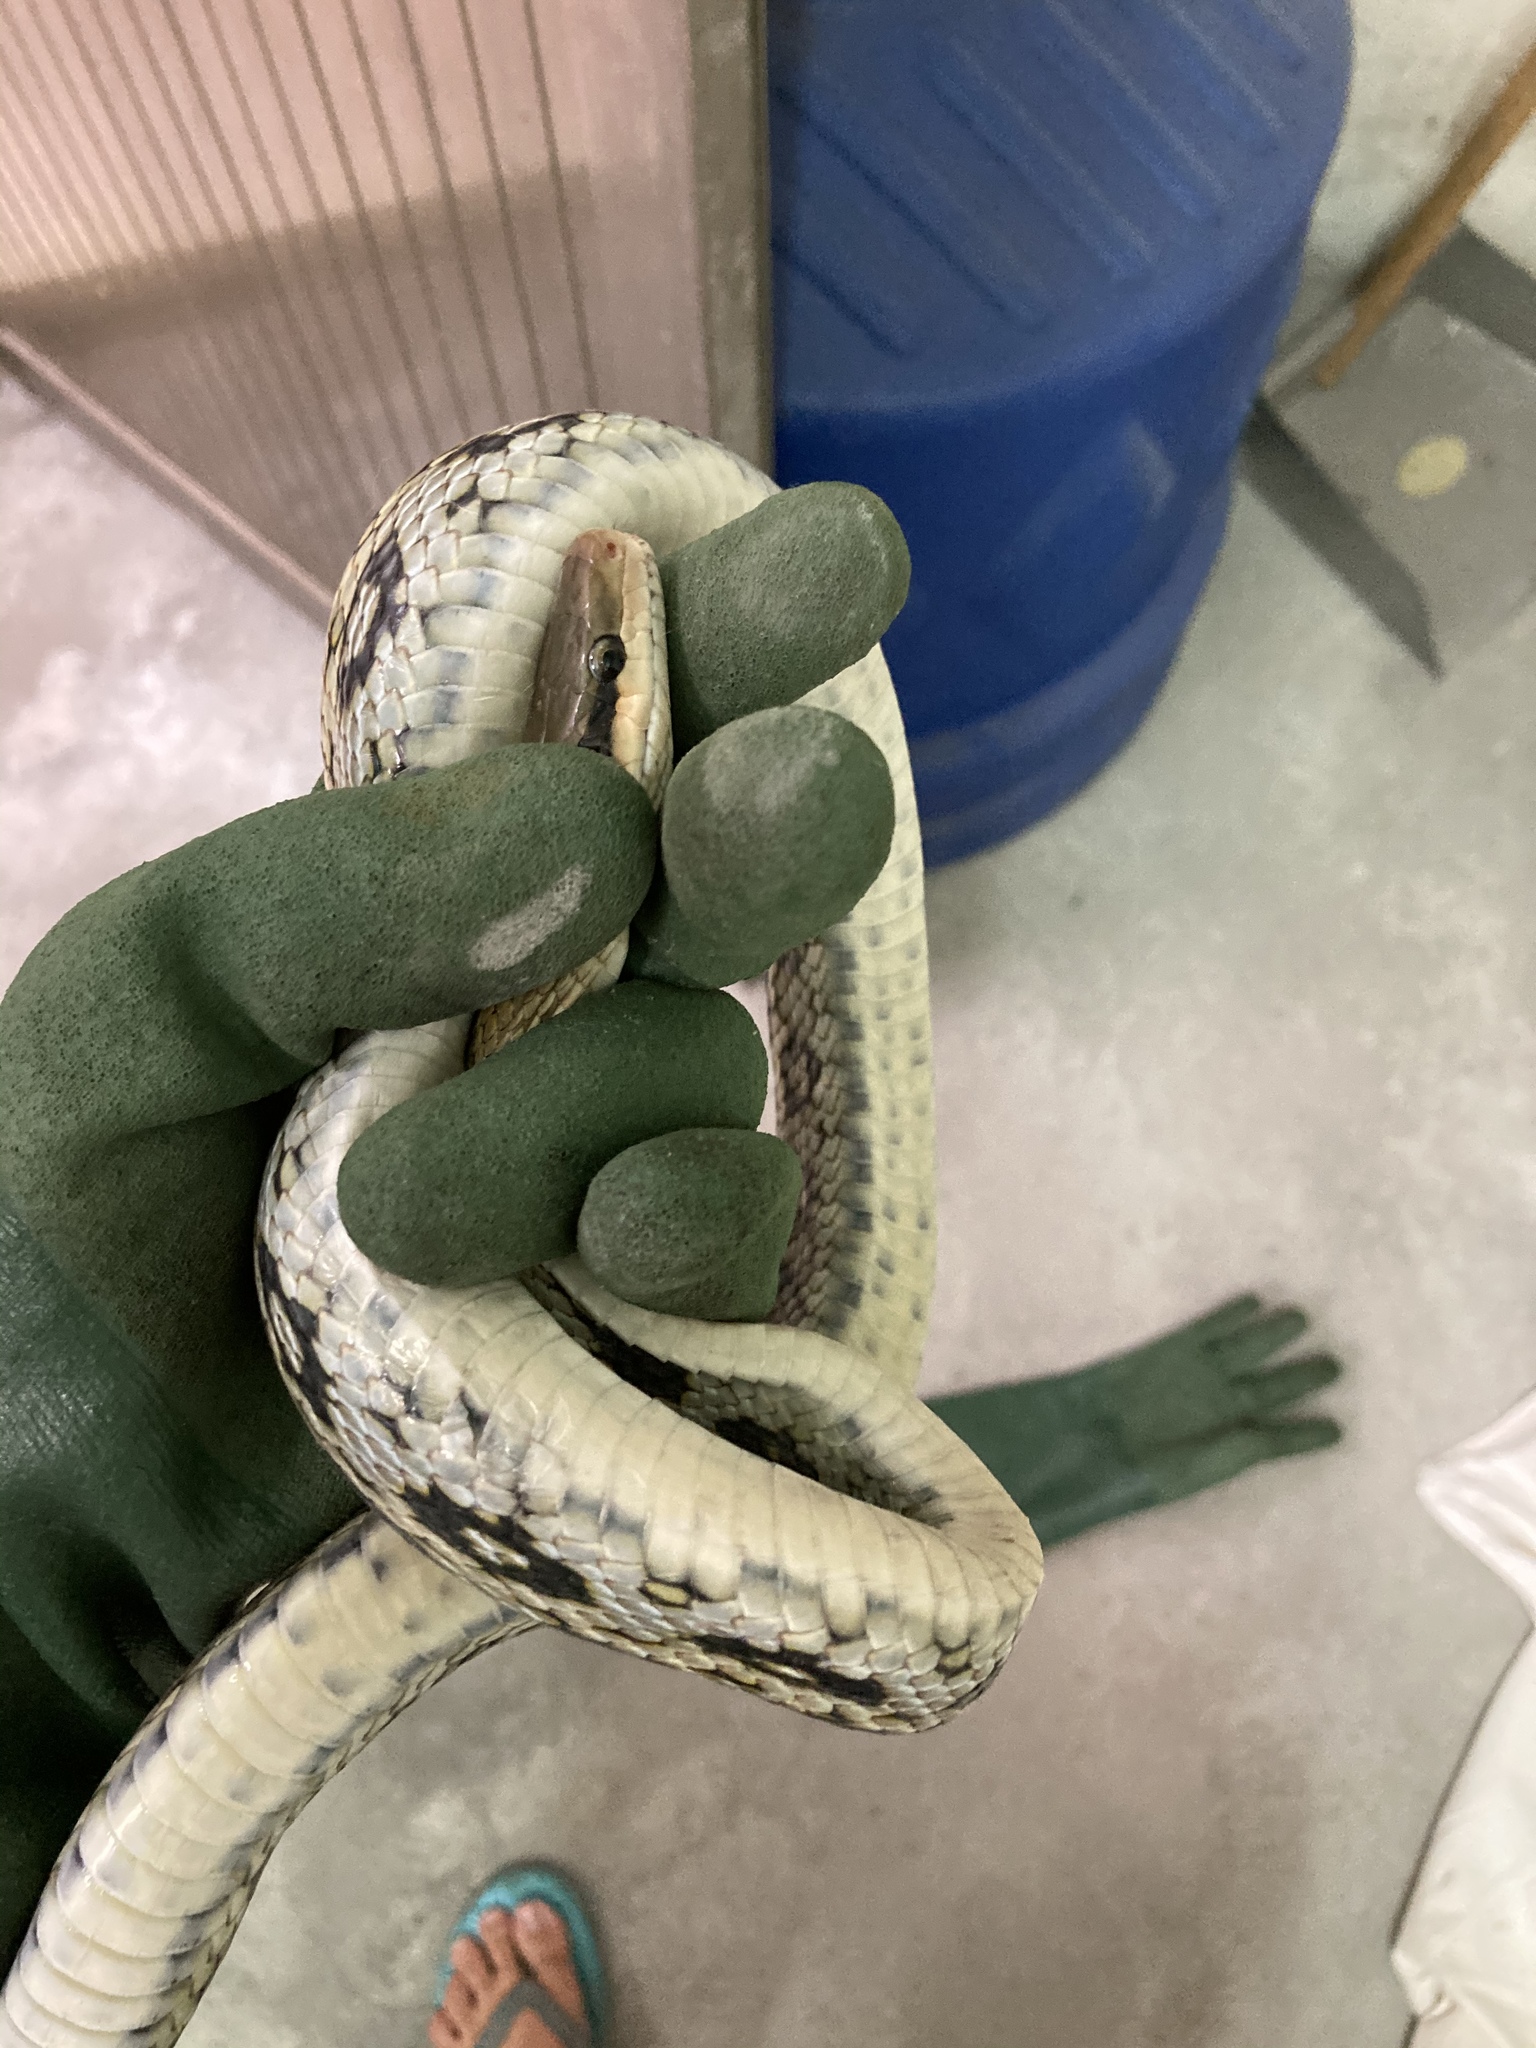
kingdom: Animalia
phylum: Chordata
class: Squamata
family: Colubridae
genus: Elaphe
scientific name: Elaphe taeniura
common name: Beauty snake
